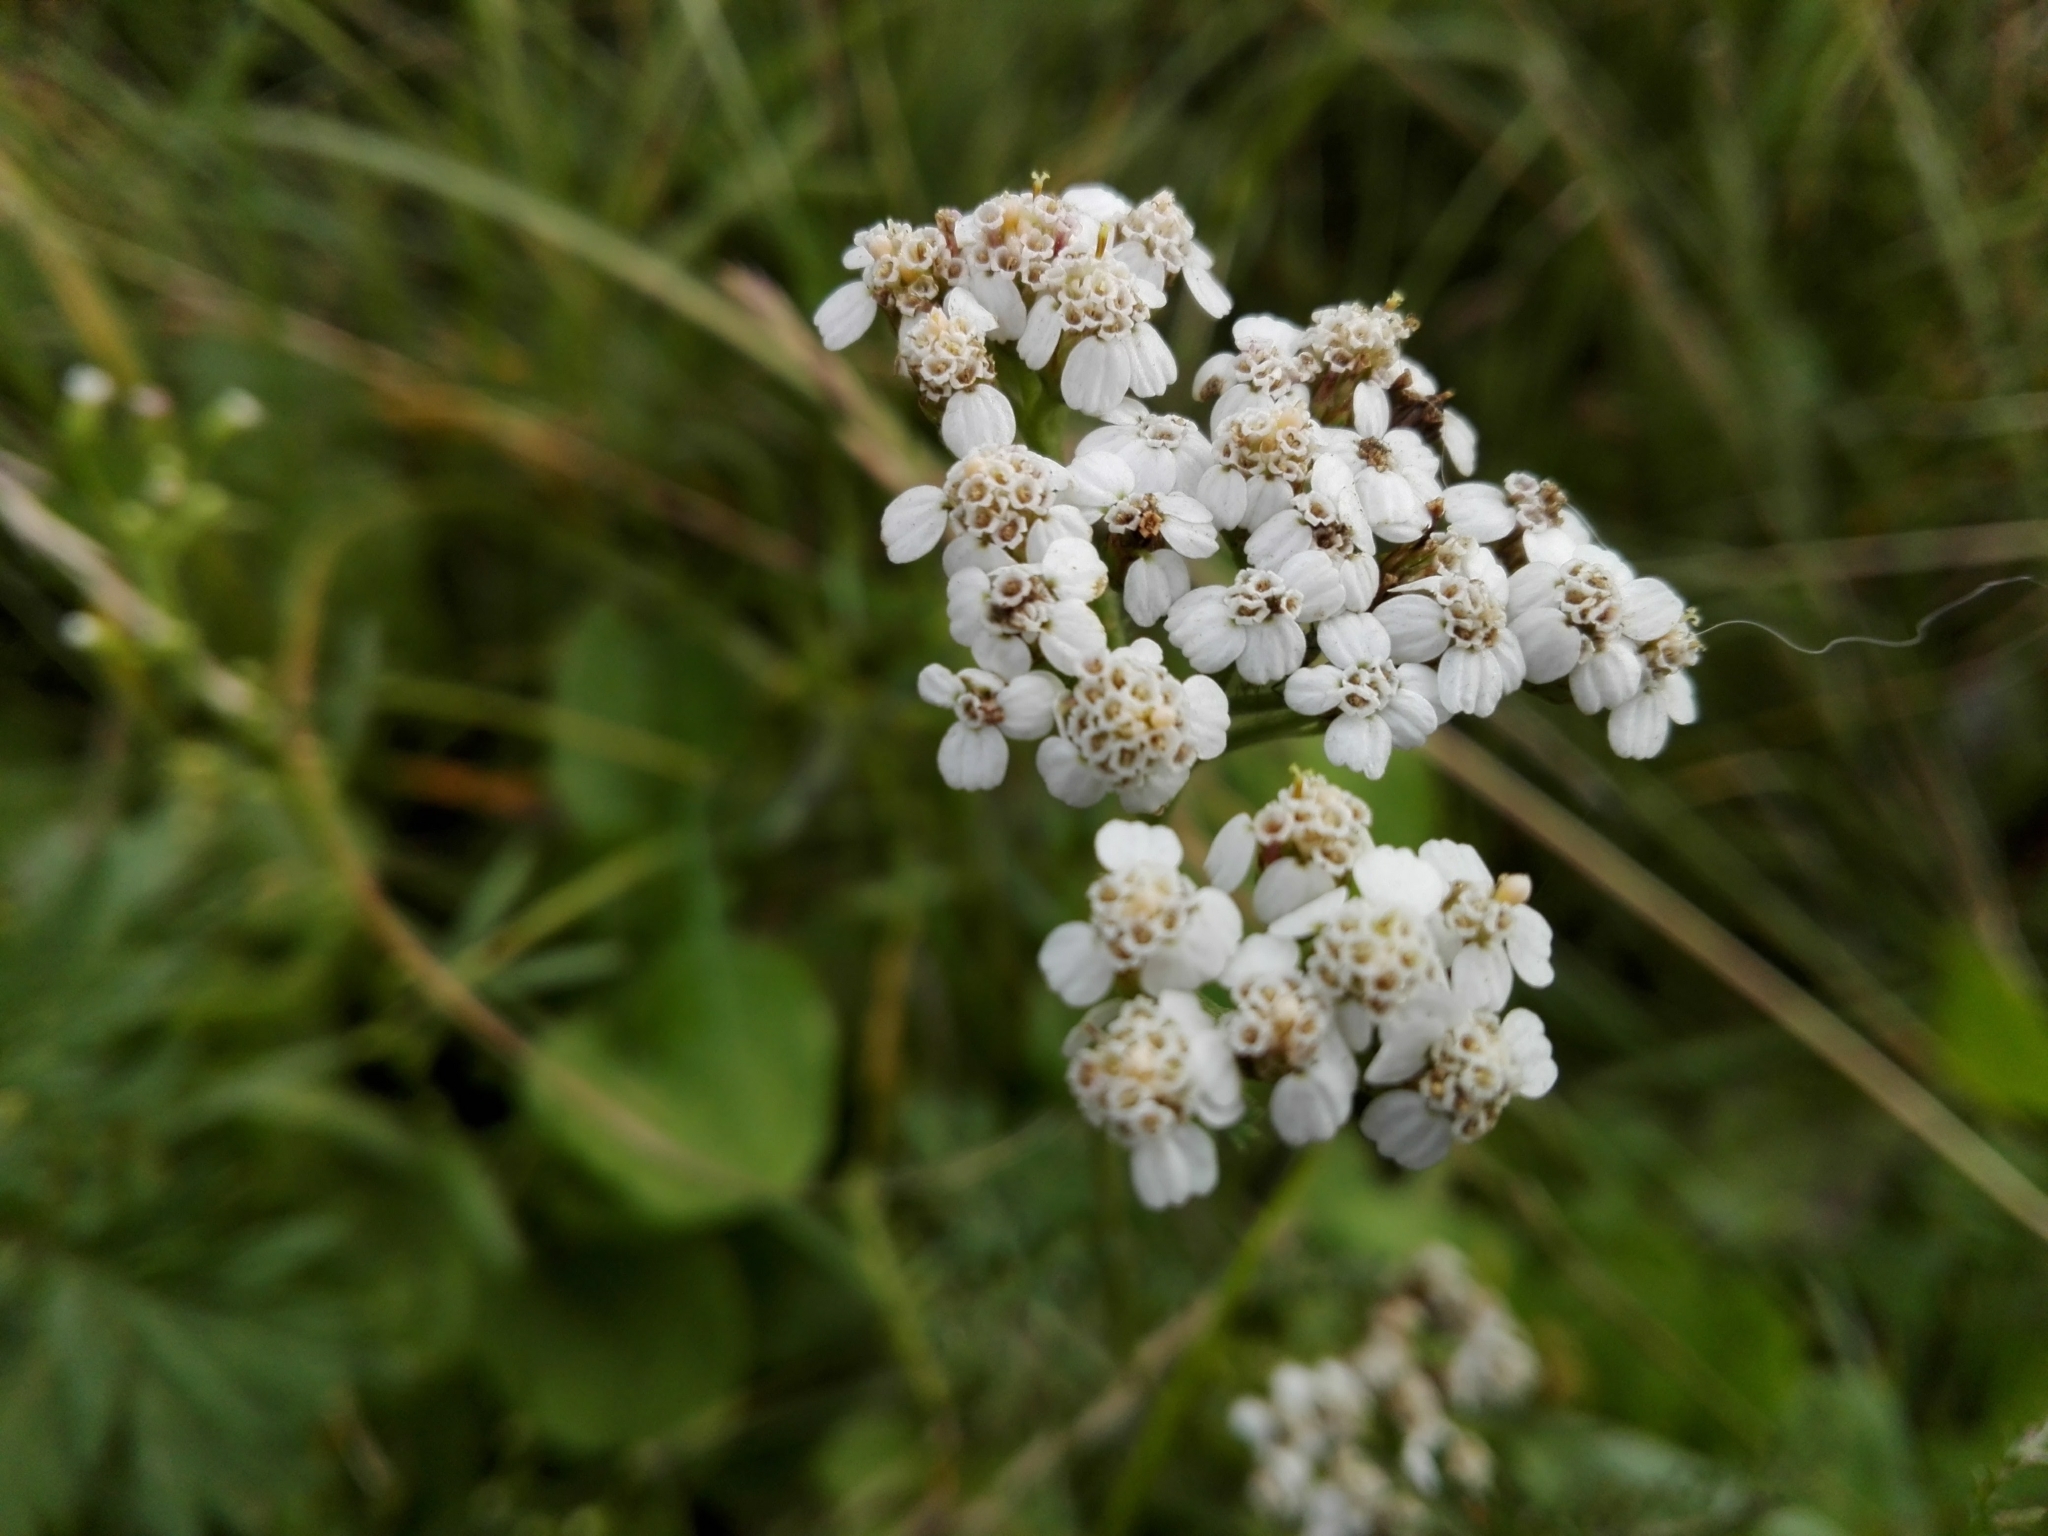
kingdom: Plantae
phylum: Tracheophyta
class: Magnoliopsida
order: Asterales
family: Asteraceae
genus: Achillea
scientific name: Achillea millefolium
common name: Yarrow
